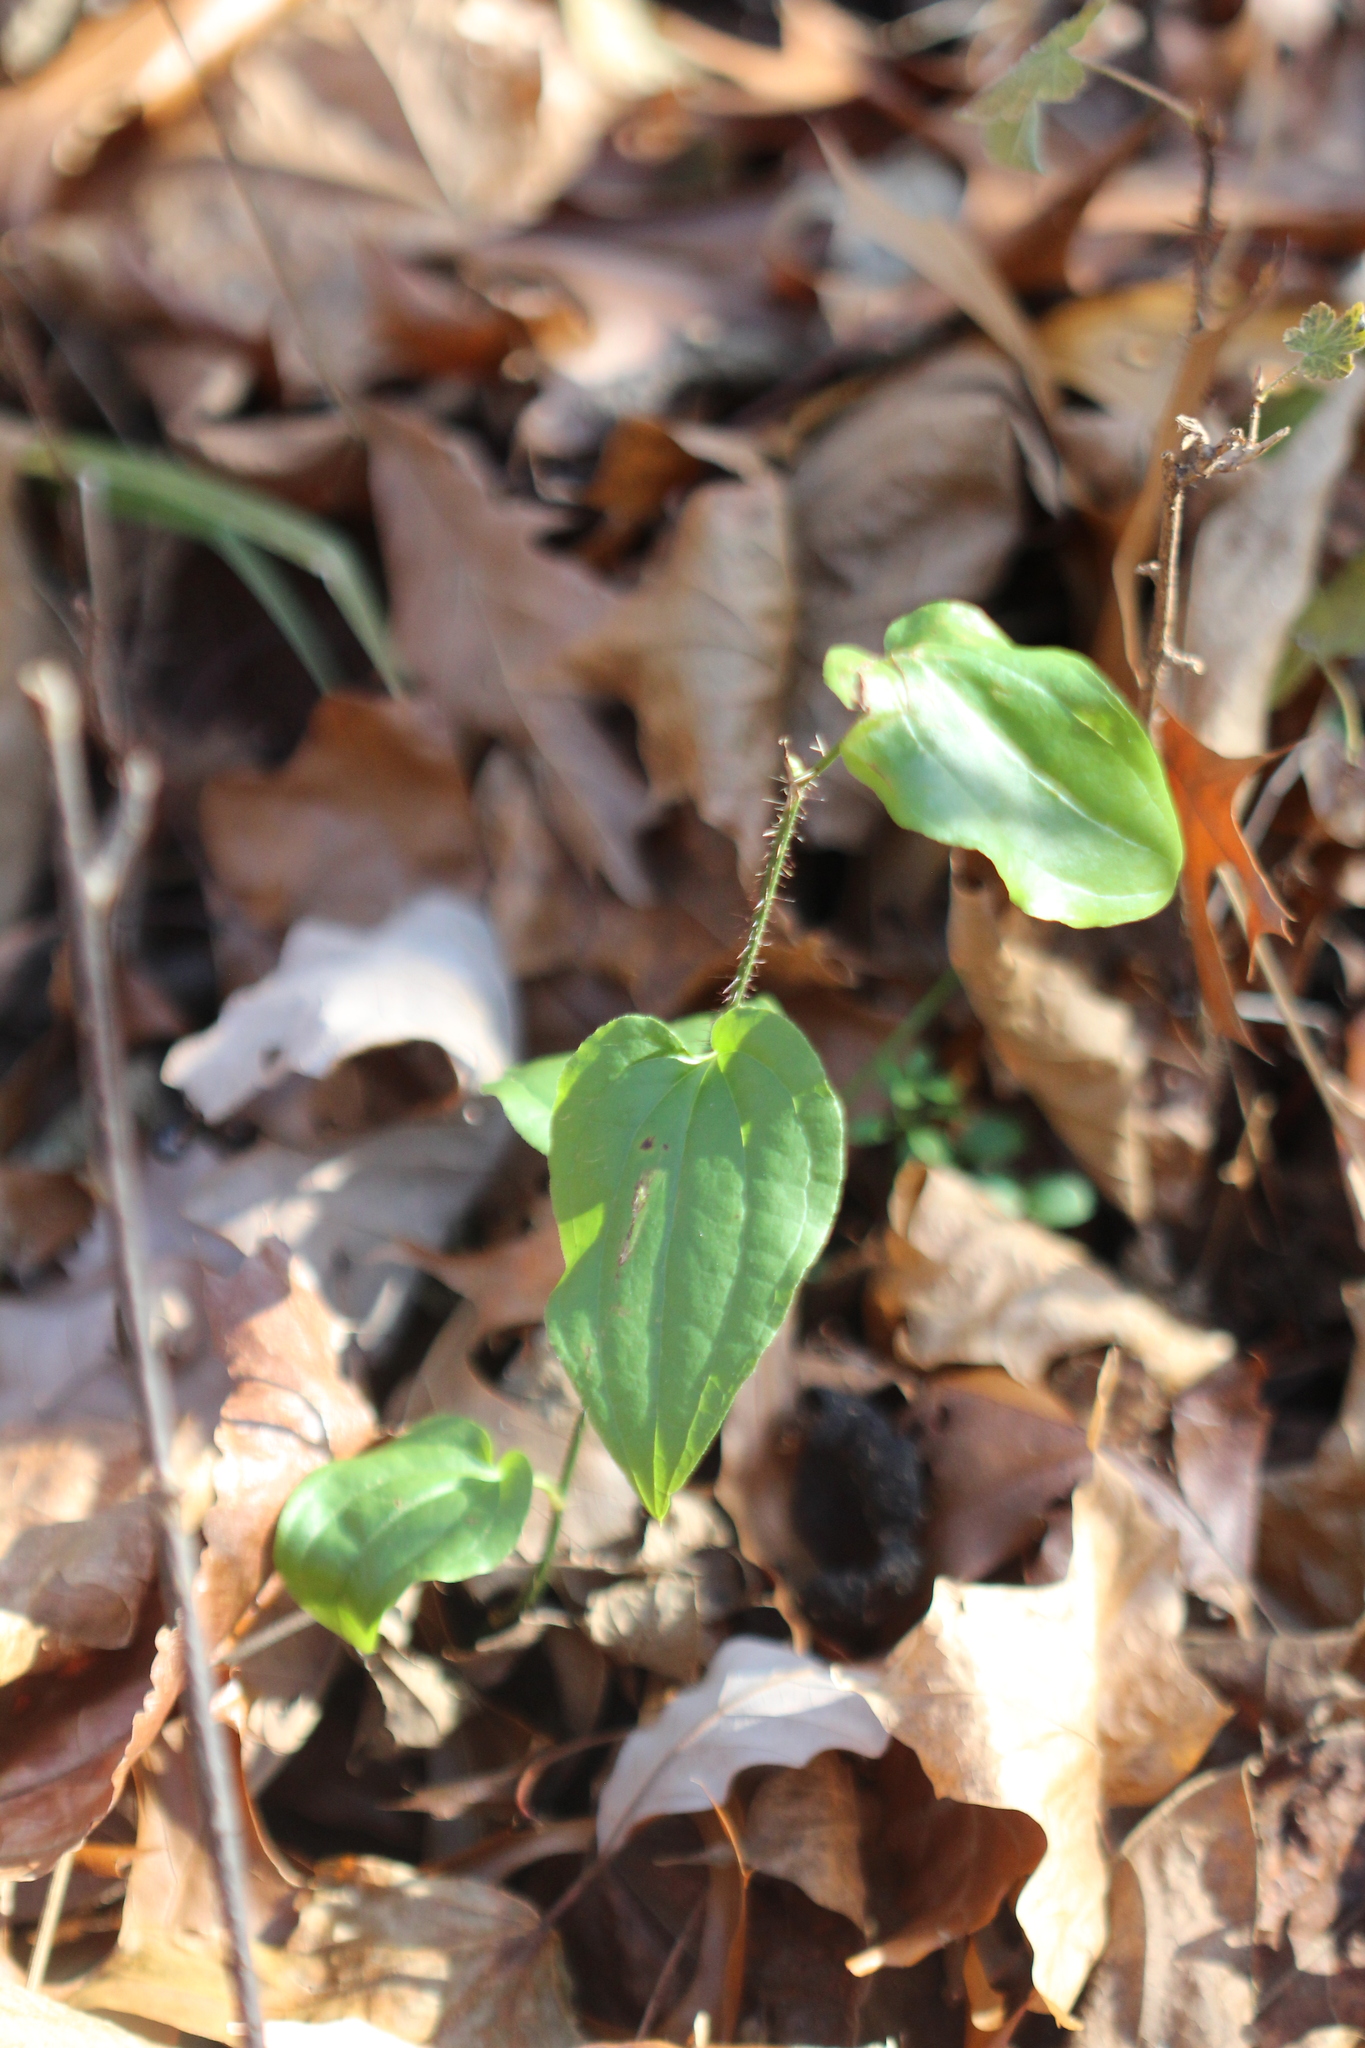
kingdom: Plantae
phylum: Tracheophyta
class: Liliopsida
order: Liliales
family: Smilacaceae
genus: Smilax
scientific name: Smilax tamnoides
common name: Hellfetter
